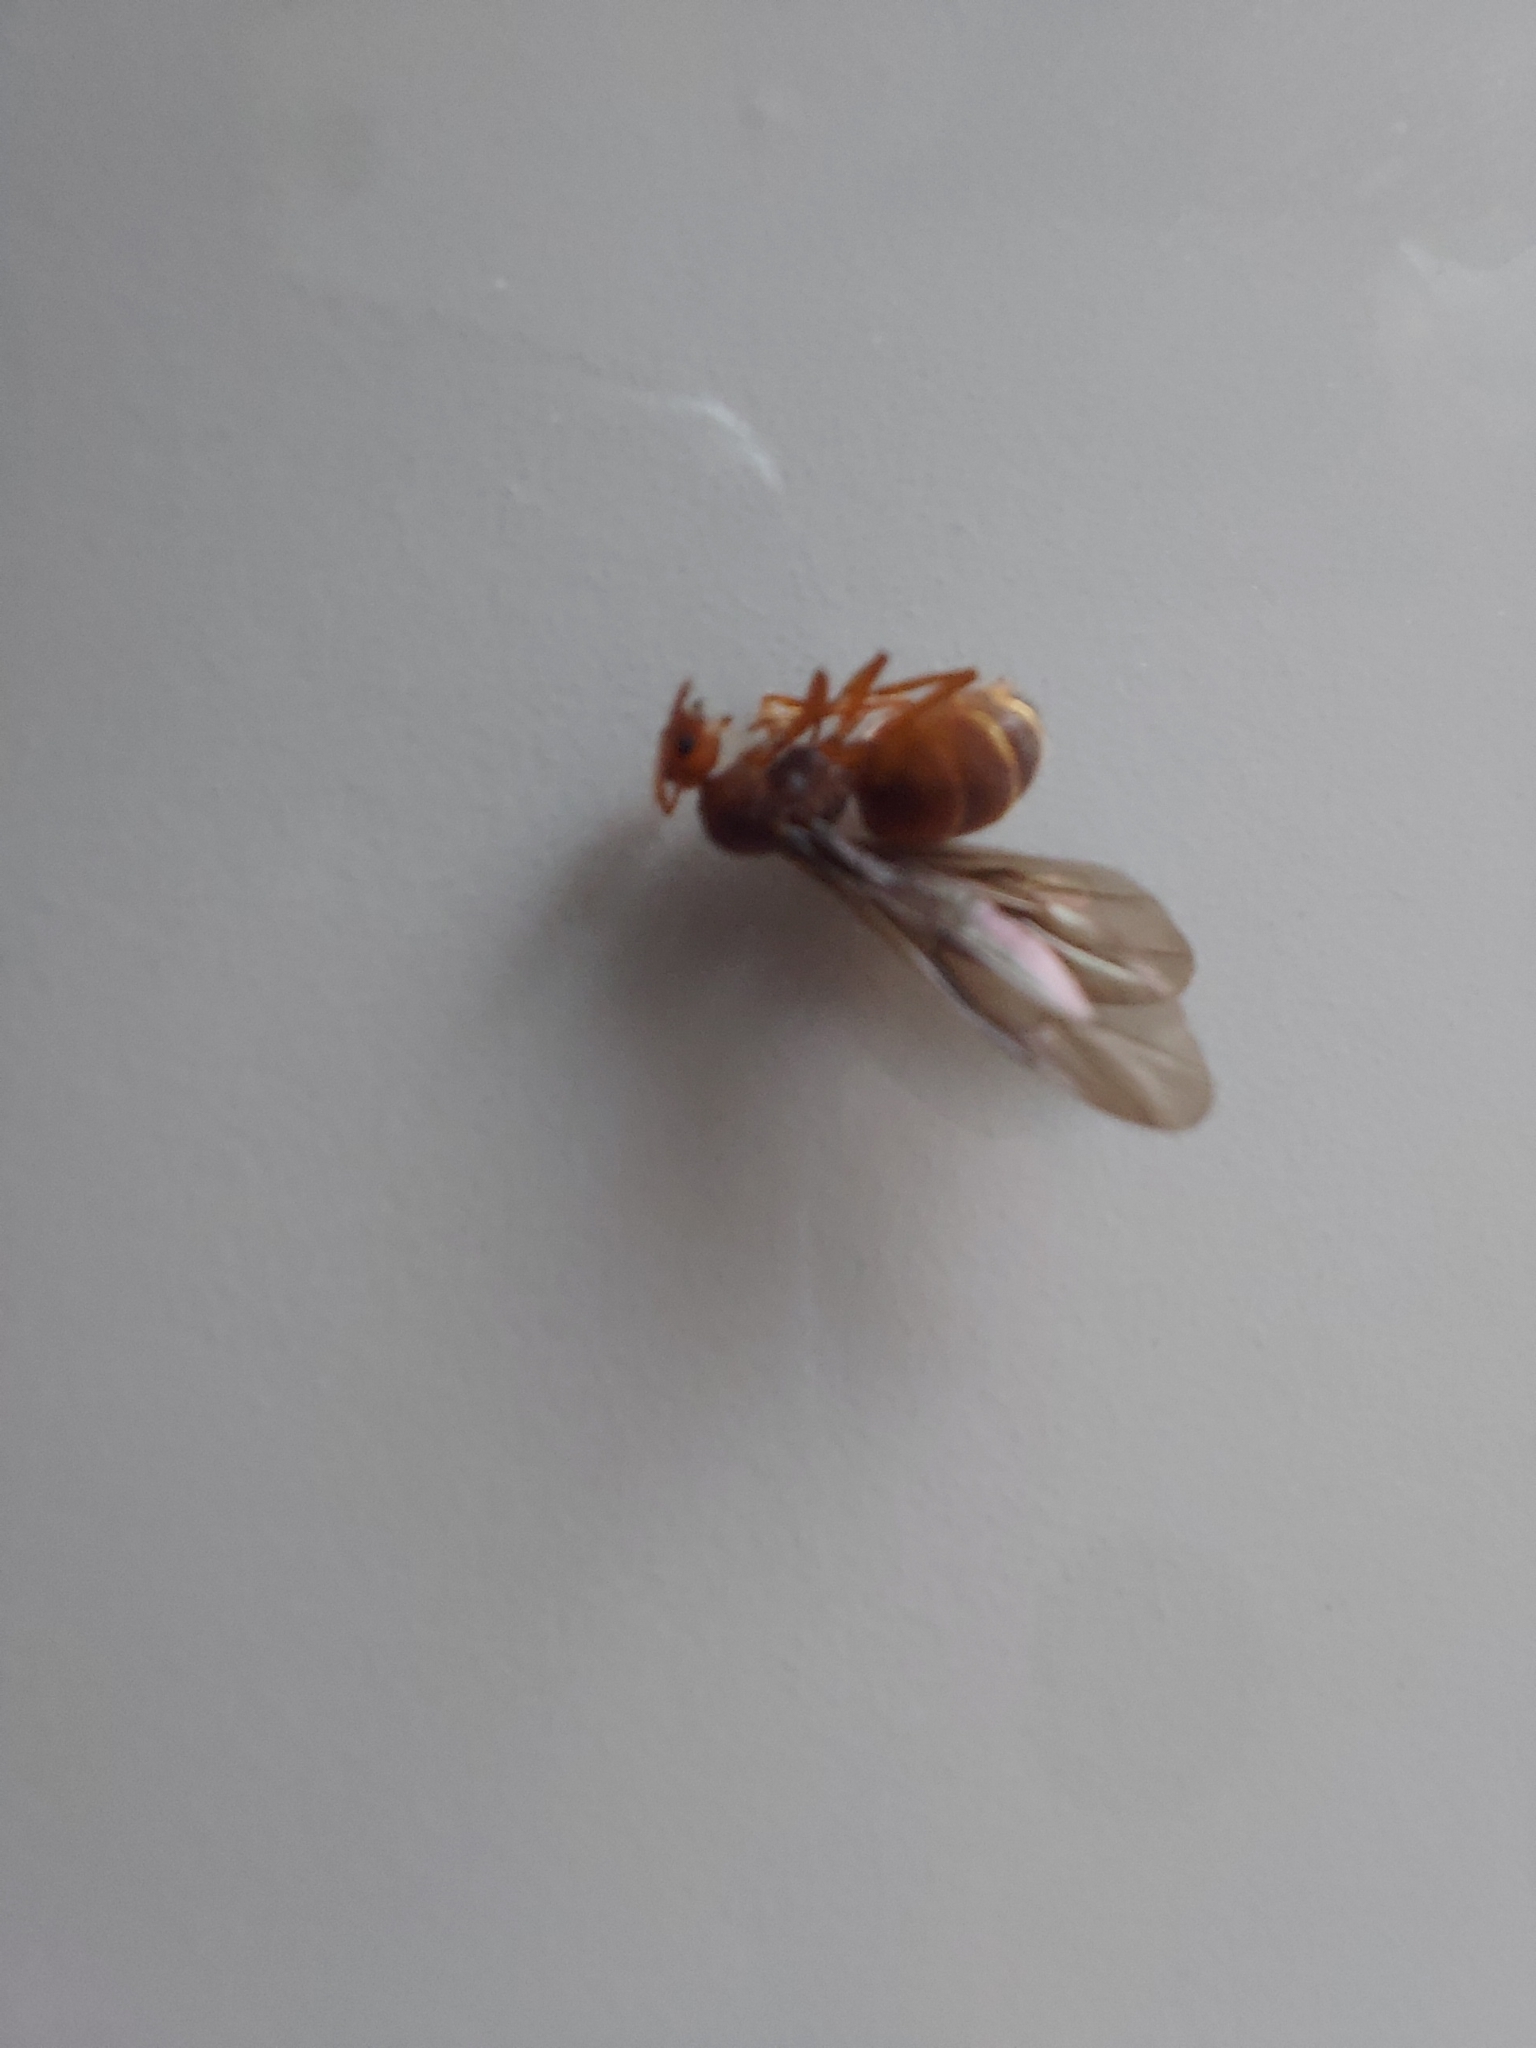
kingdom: Animalia
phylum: Arthropoda
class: Insecta
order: Hymenoptera
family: Formicidae
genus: Prenolepis
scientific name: Prenolepis nitens
